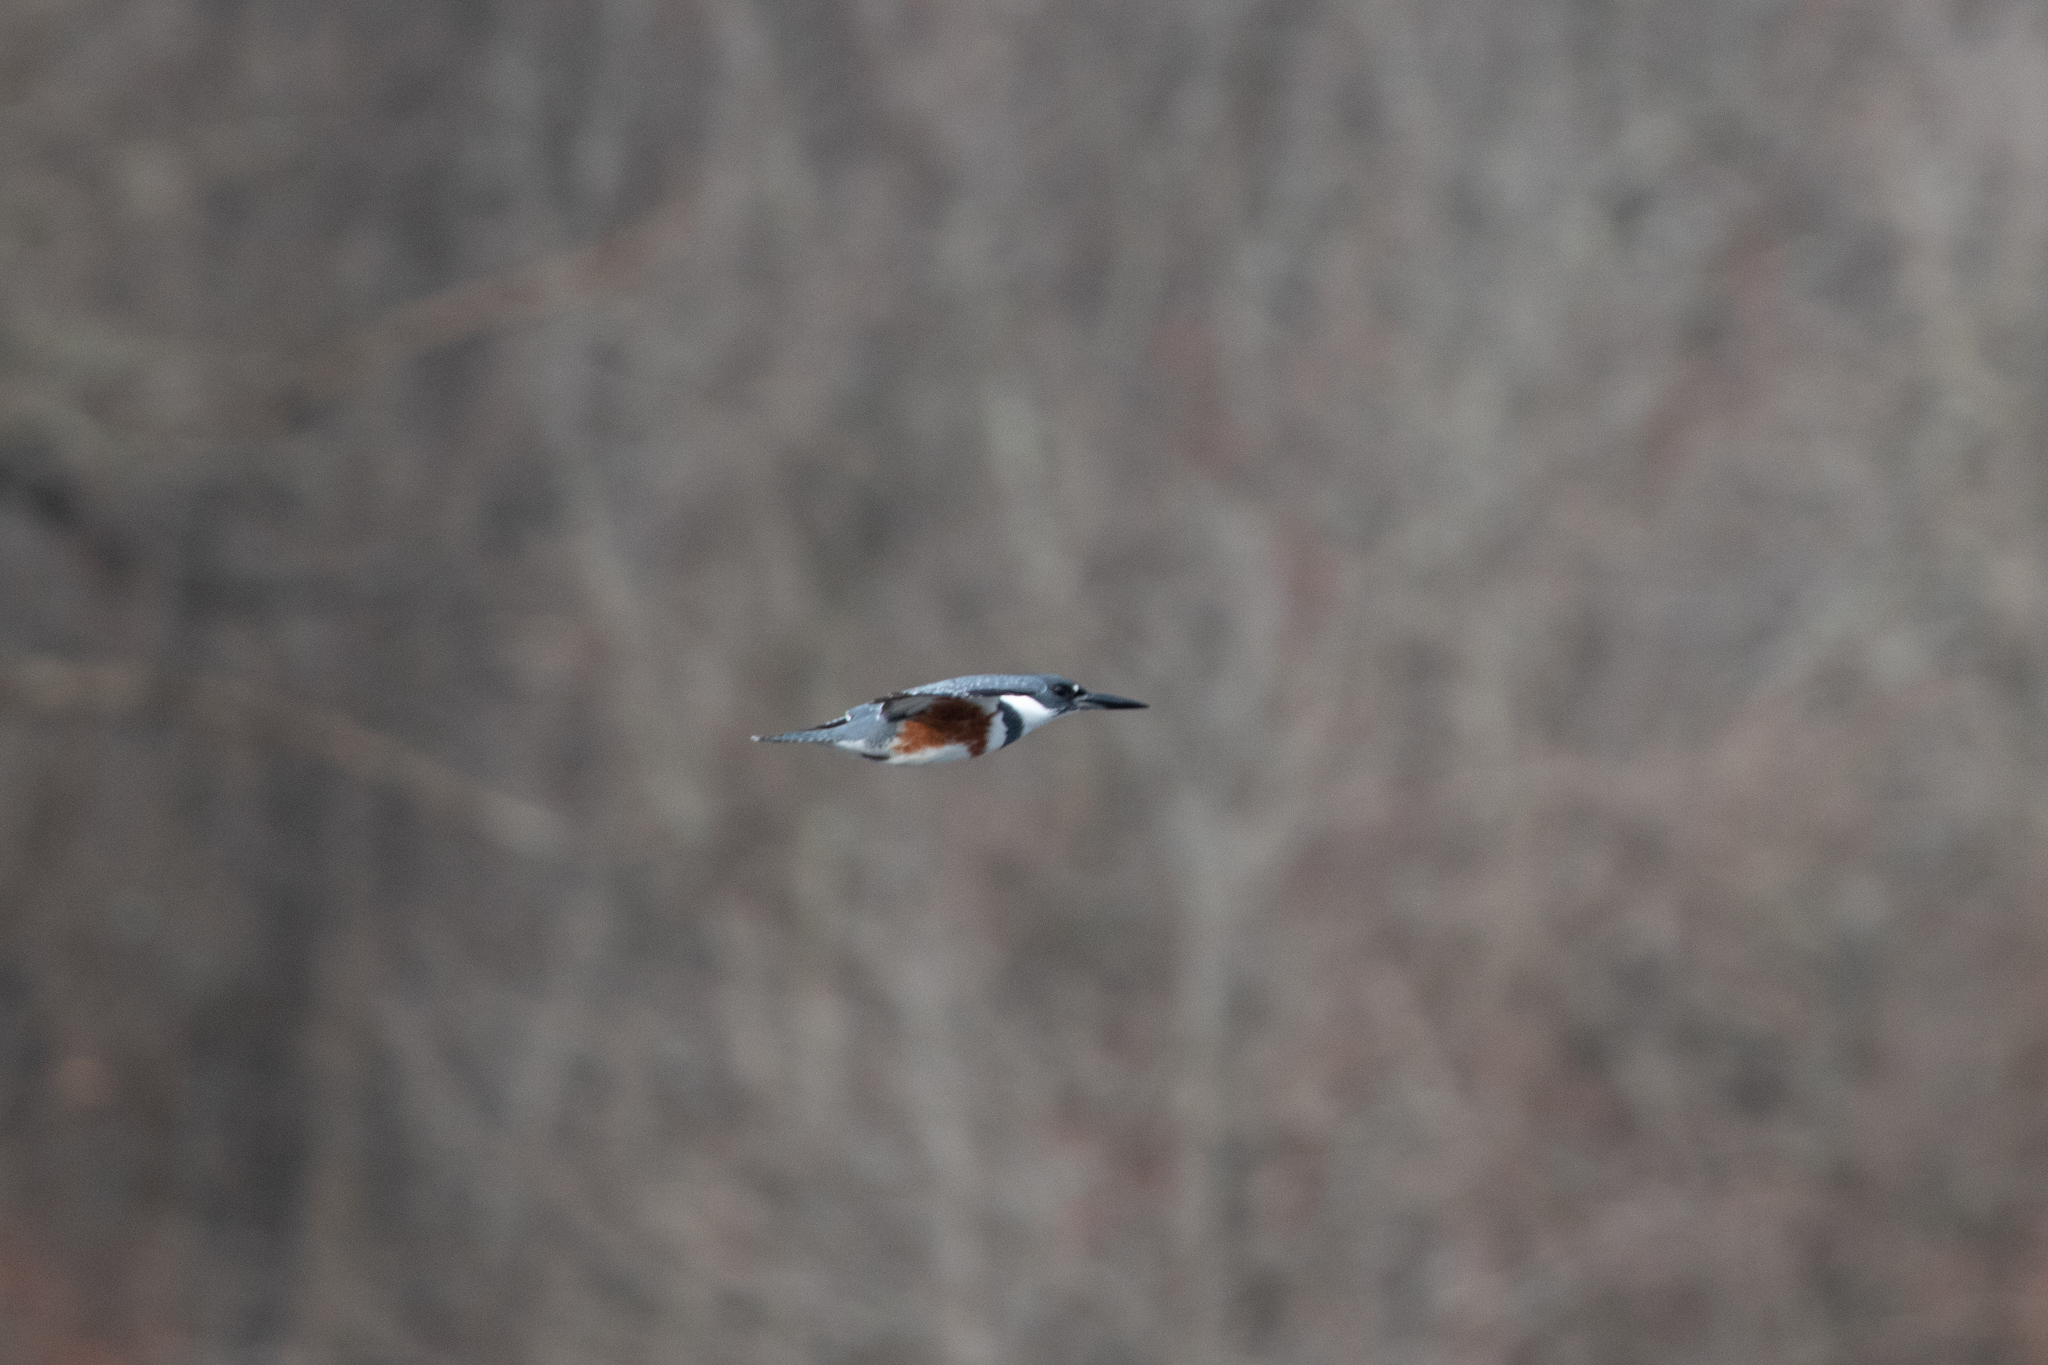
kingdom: Animalia
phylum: Chordata
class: Aves
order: Coraciiformes
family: Alcedinidae
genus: Megaceryle
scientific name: Megaceryle alcyon
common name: Belted kingfisher
